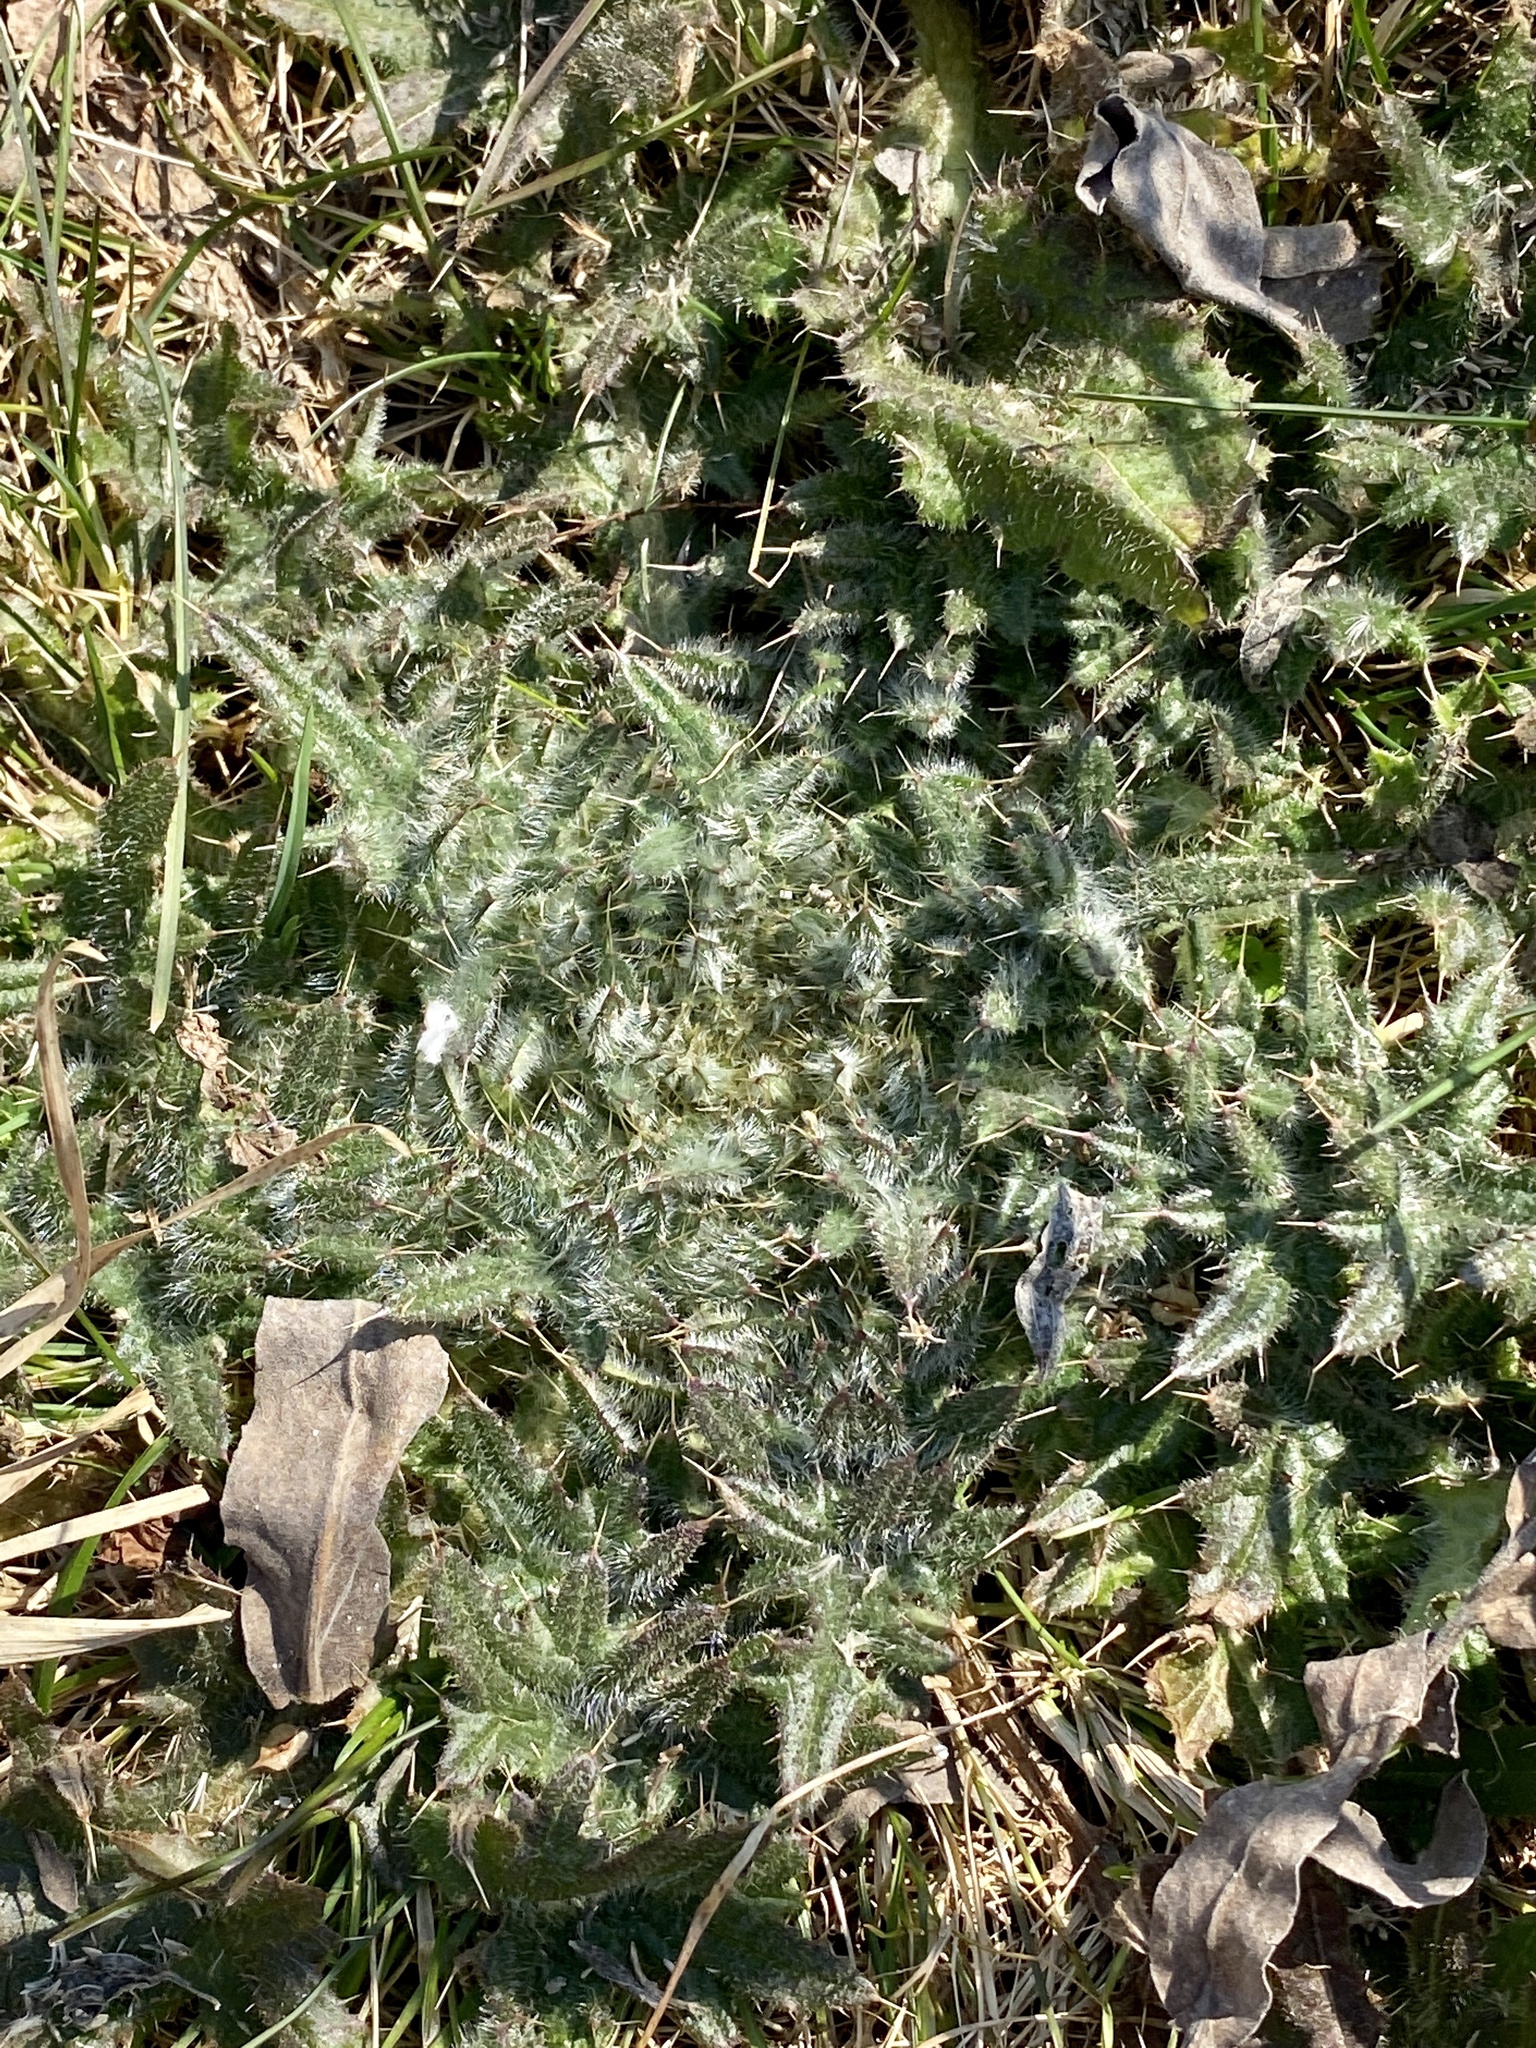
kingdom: Plantae
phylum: Tracheophyta
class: Magnoliopsida
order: Asterales
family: Asteraceae
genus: Cirsium
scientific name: Cirsium vulgare
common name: Bull thistle
